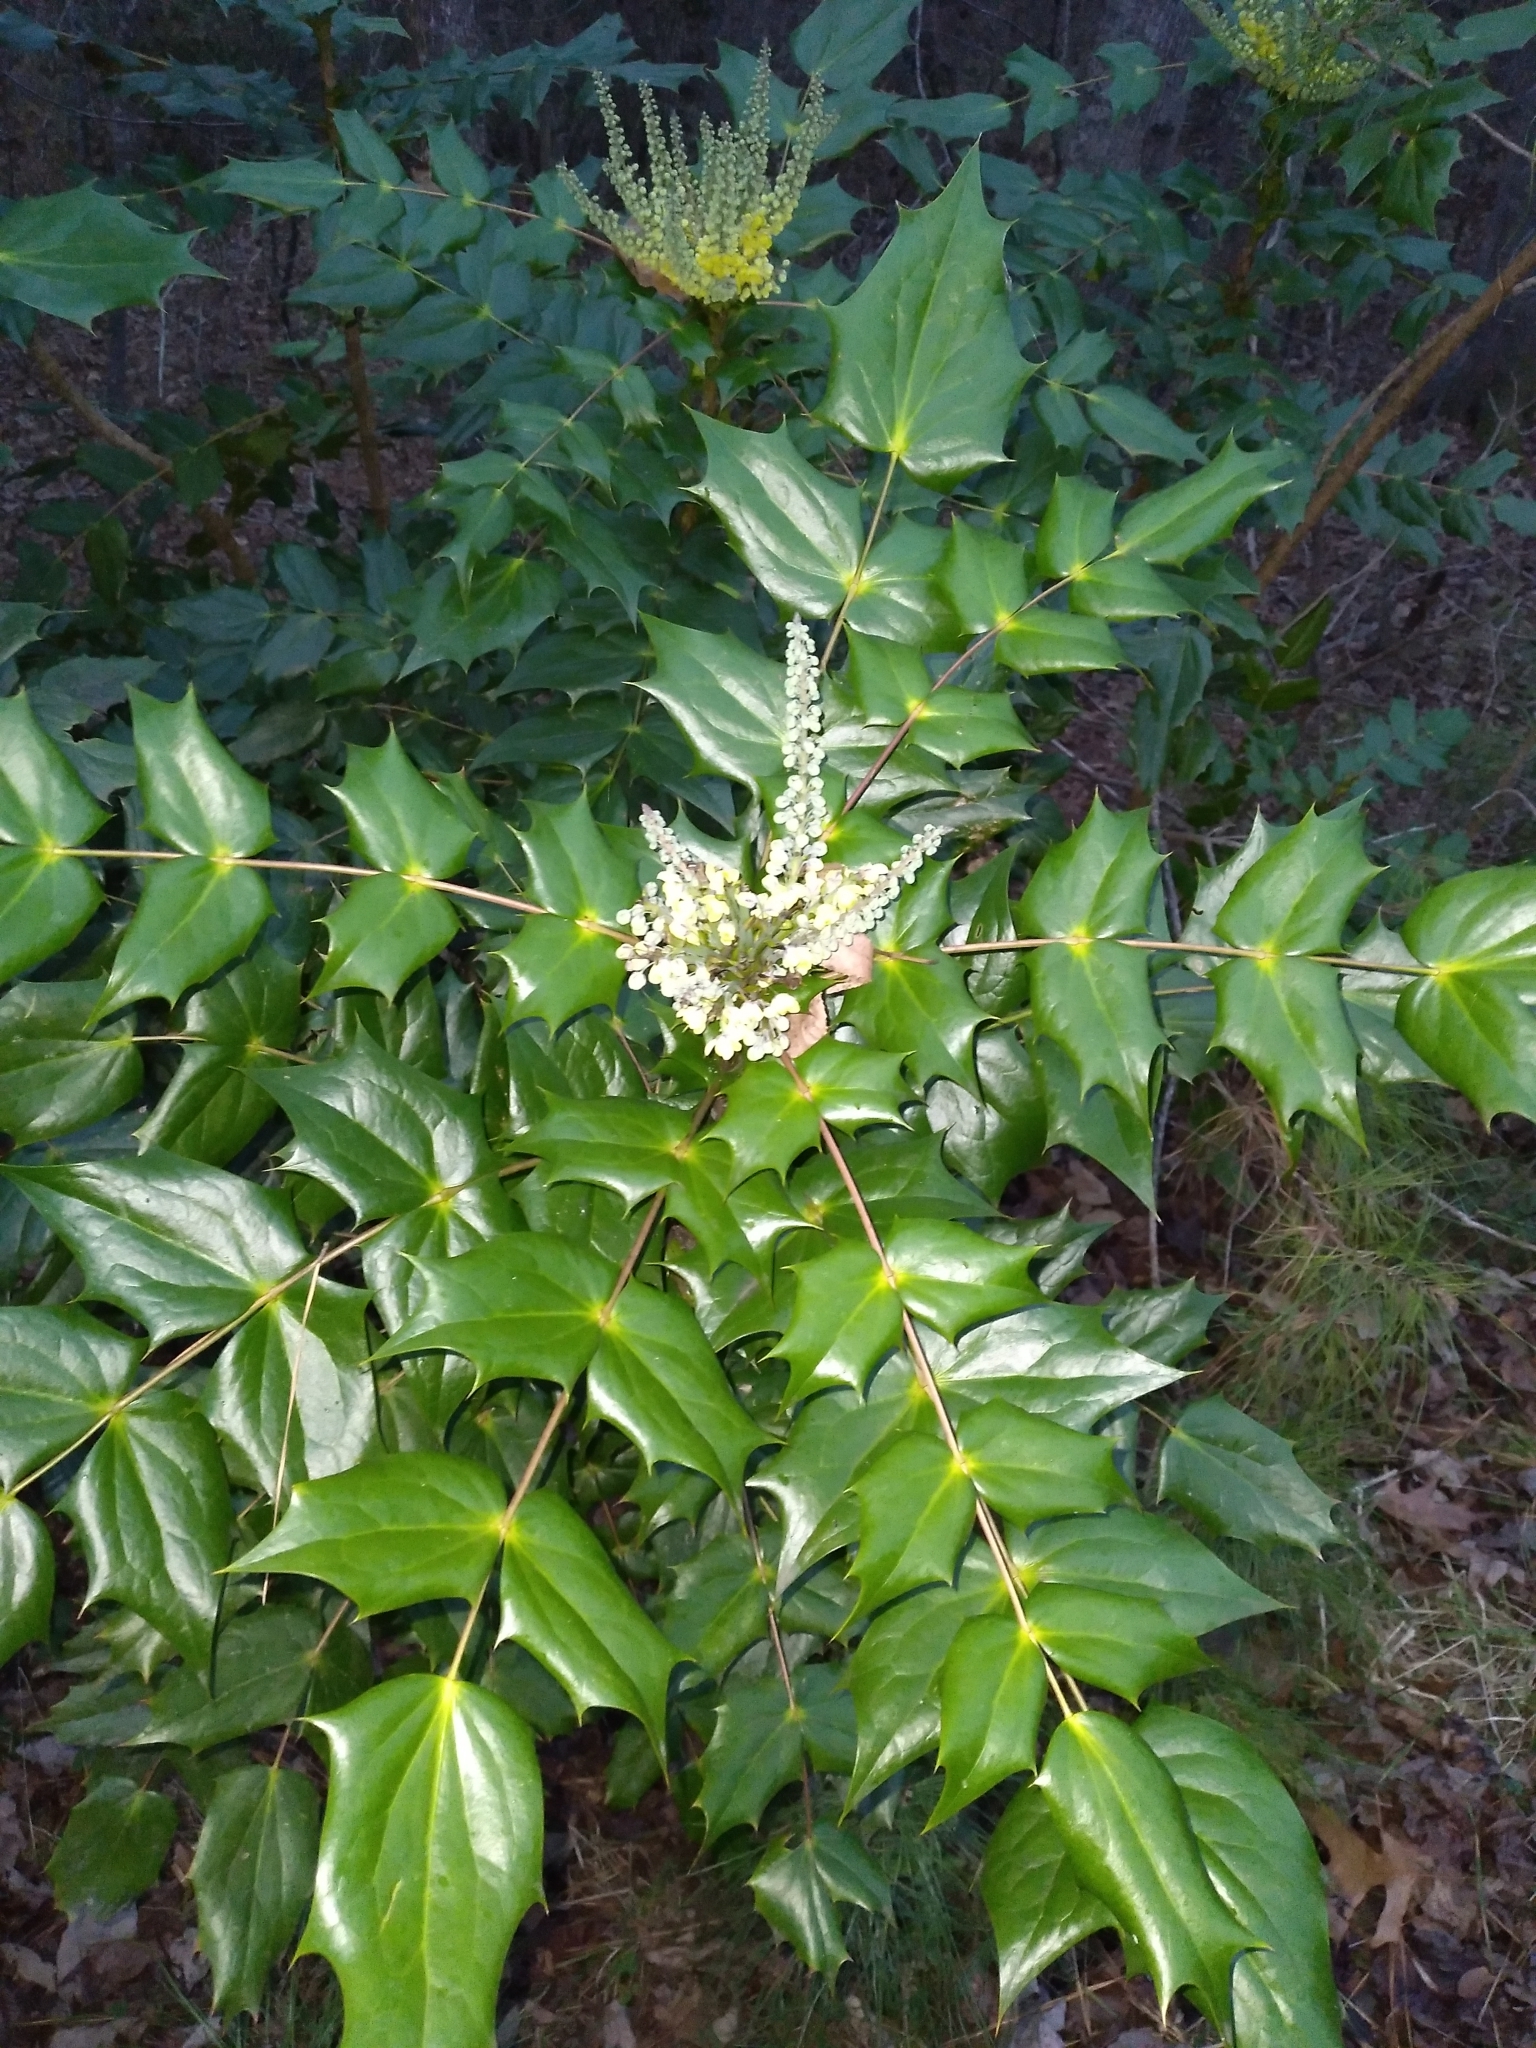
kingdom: Plantae
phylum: Tracheophyta
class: Magnoliopsida
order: Ranunculales
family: Berberidaceae
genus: Mahonia
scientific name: Mahonia bealei
